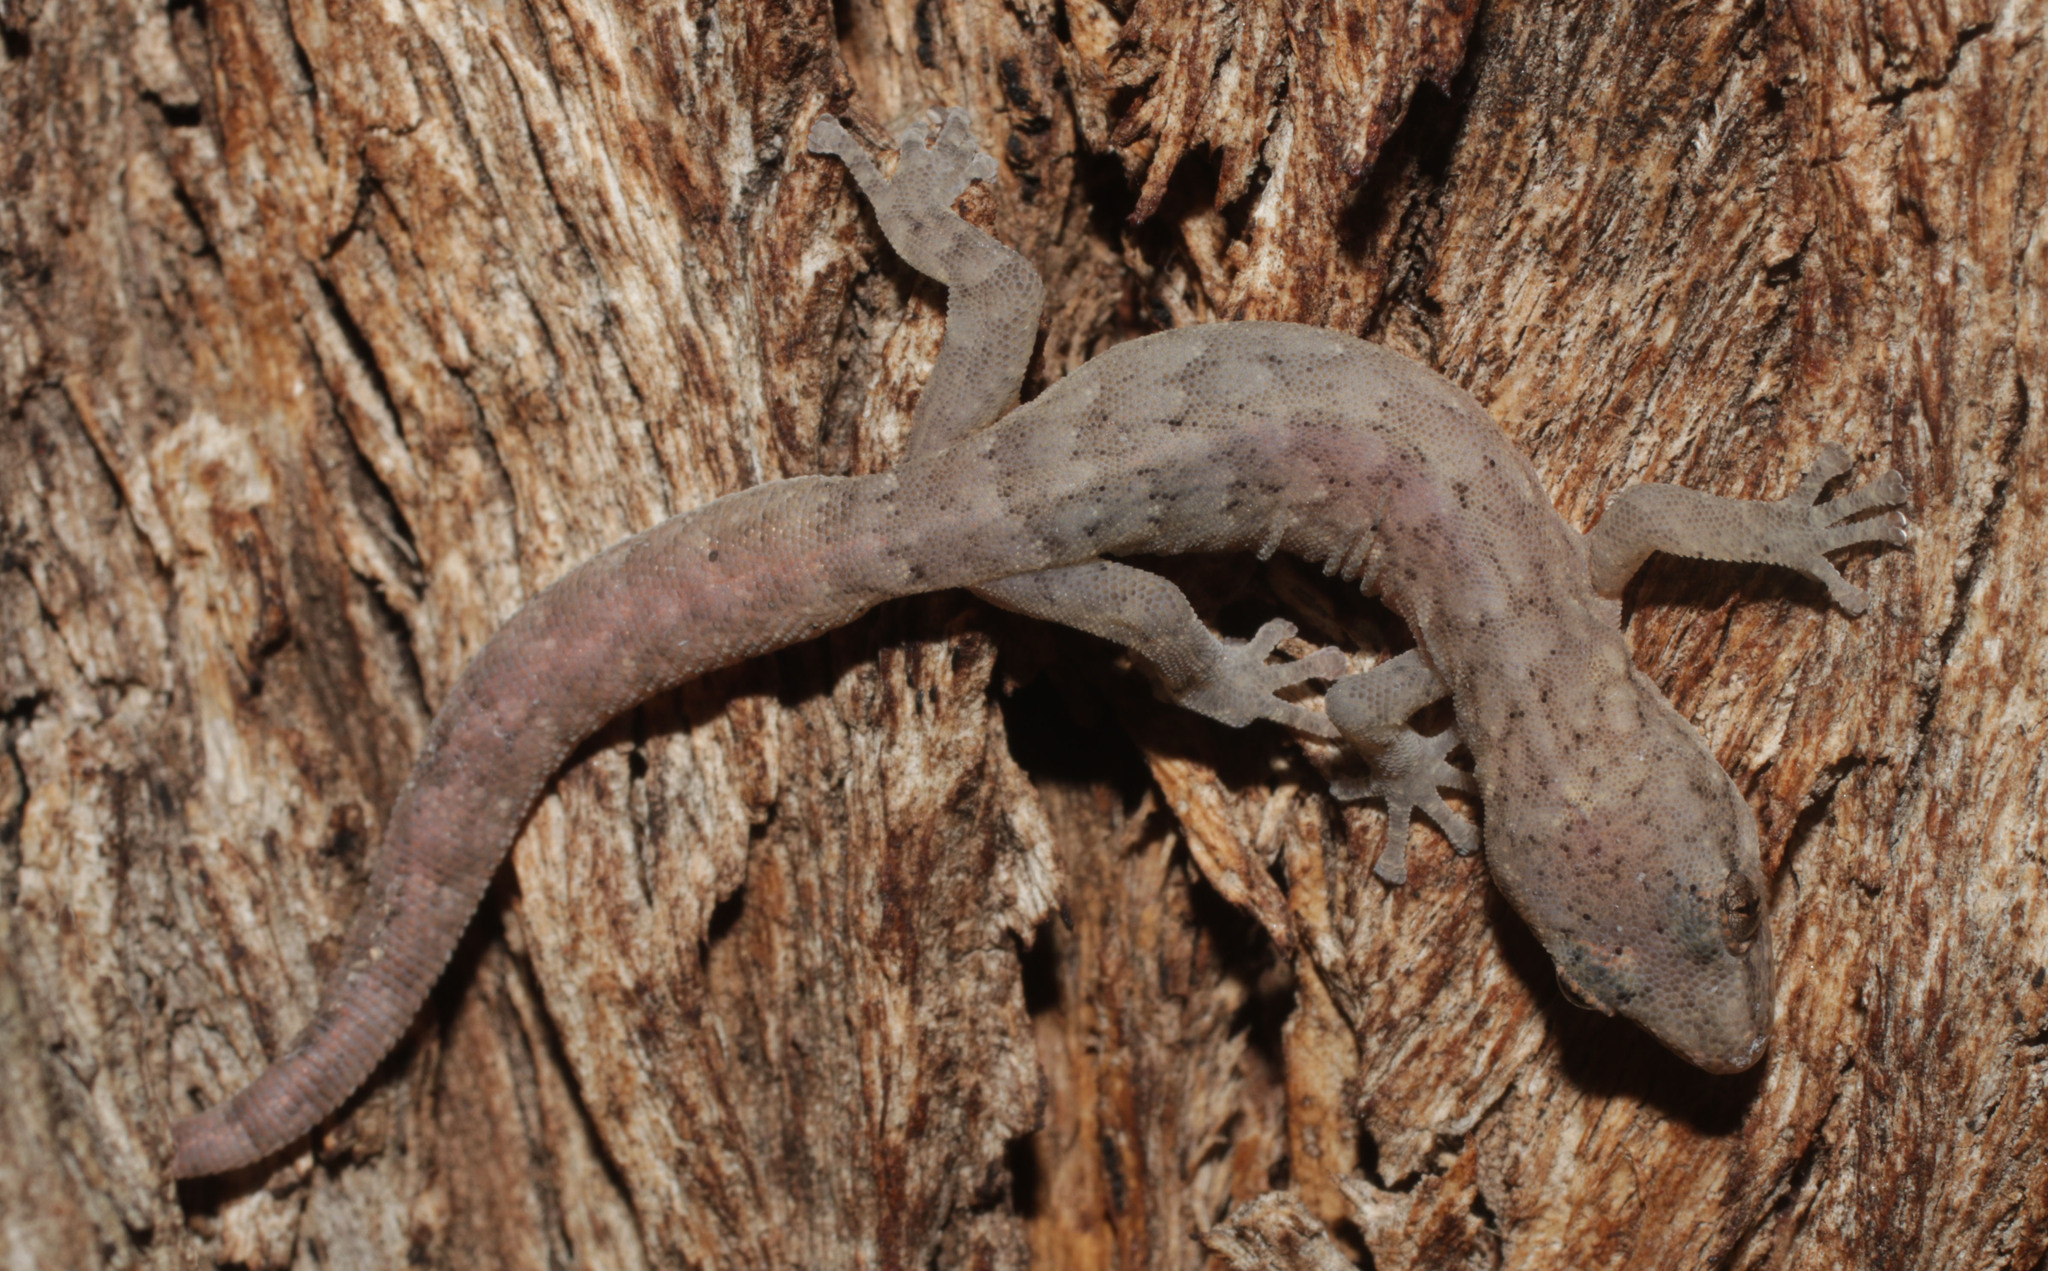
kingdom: Animalia
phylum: Chordata
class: Squamata
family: Gekkonidae
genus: Afrogecko
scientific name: Afrogecko porphyreus
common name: Marbled leaf-toed gecko
